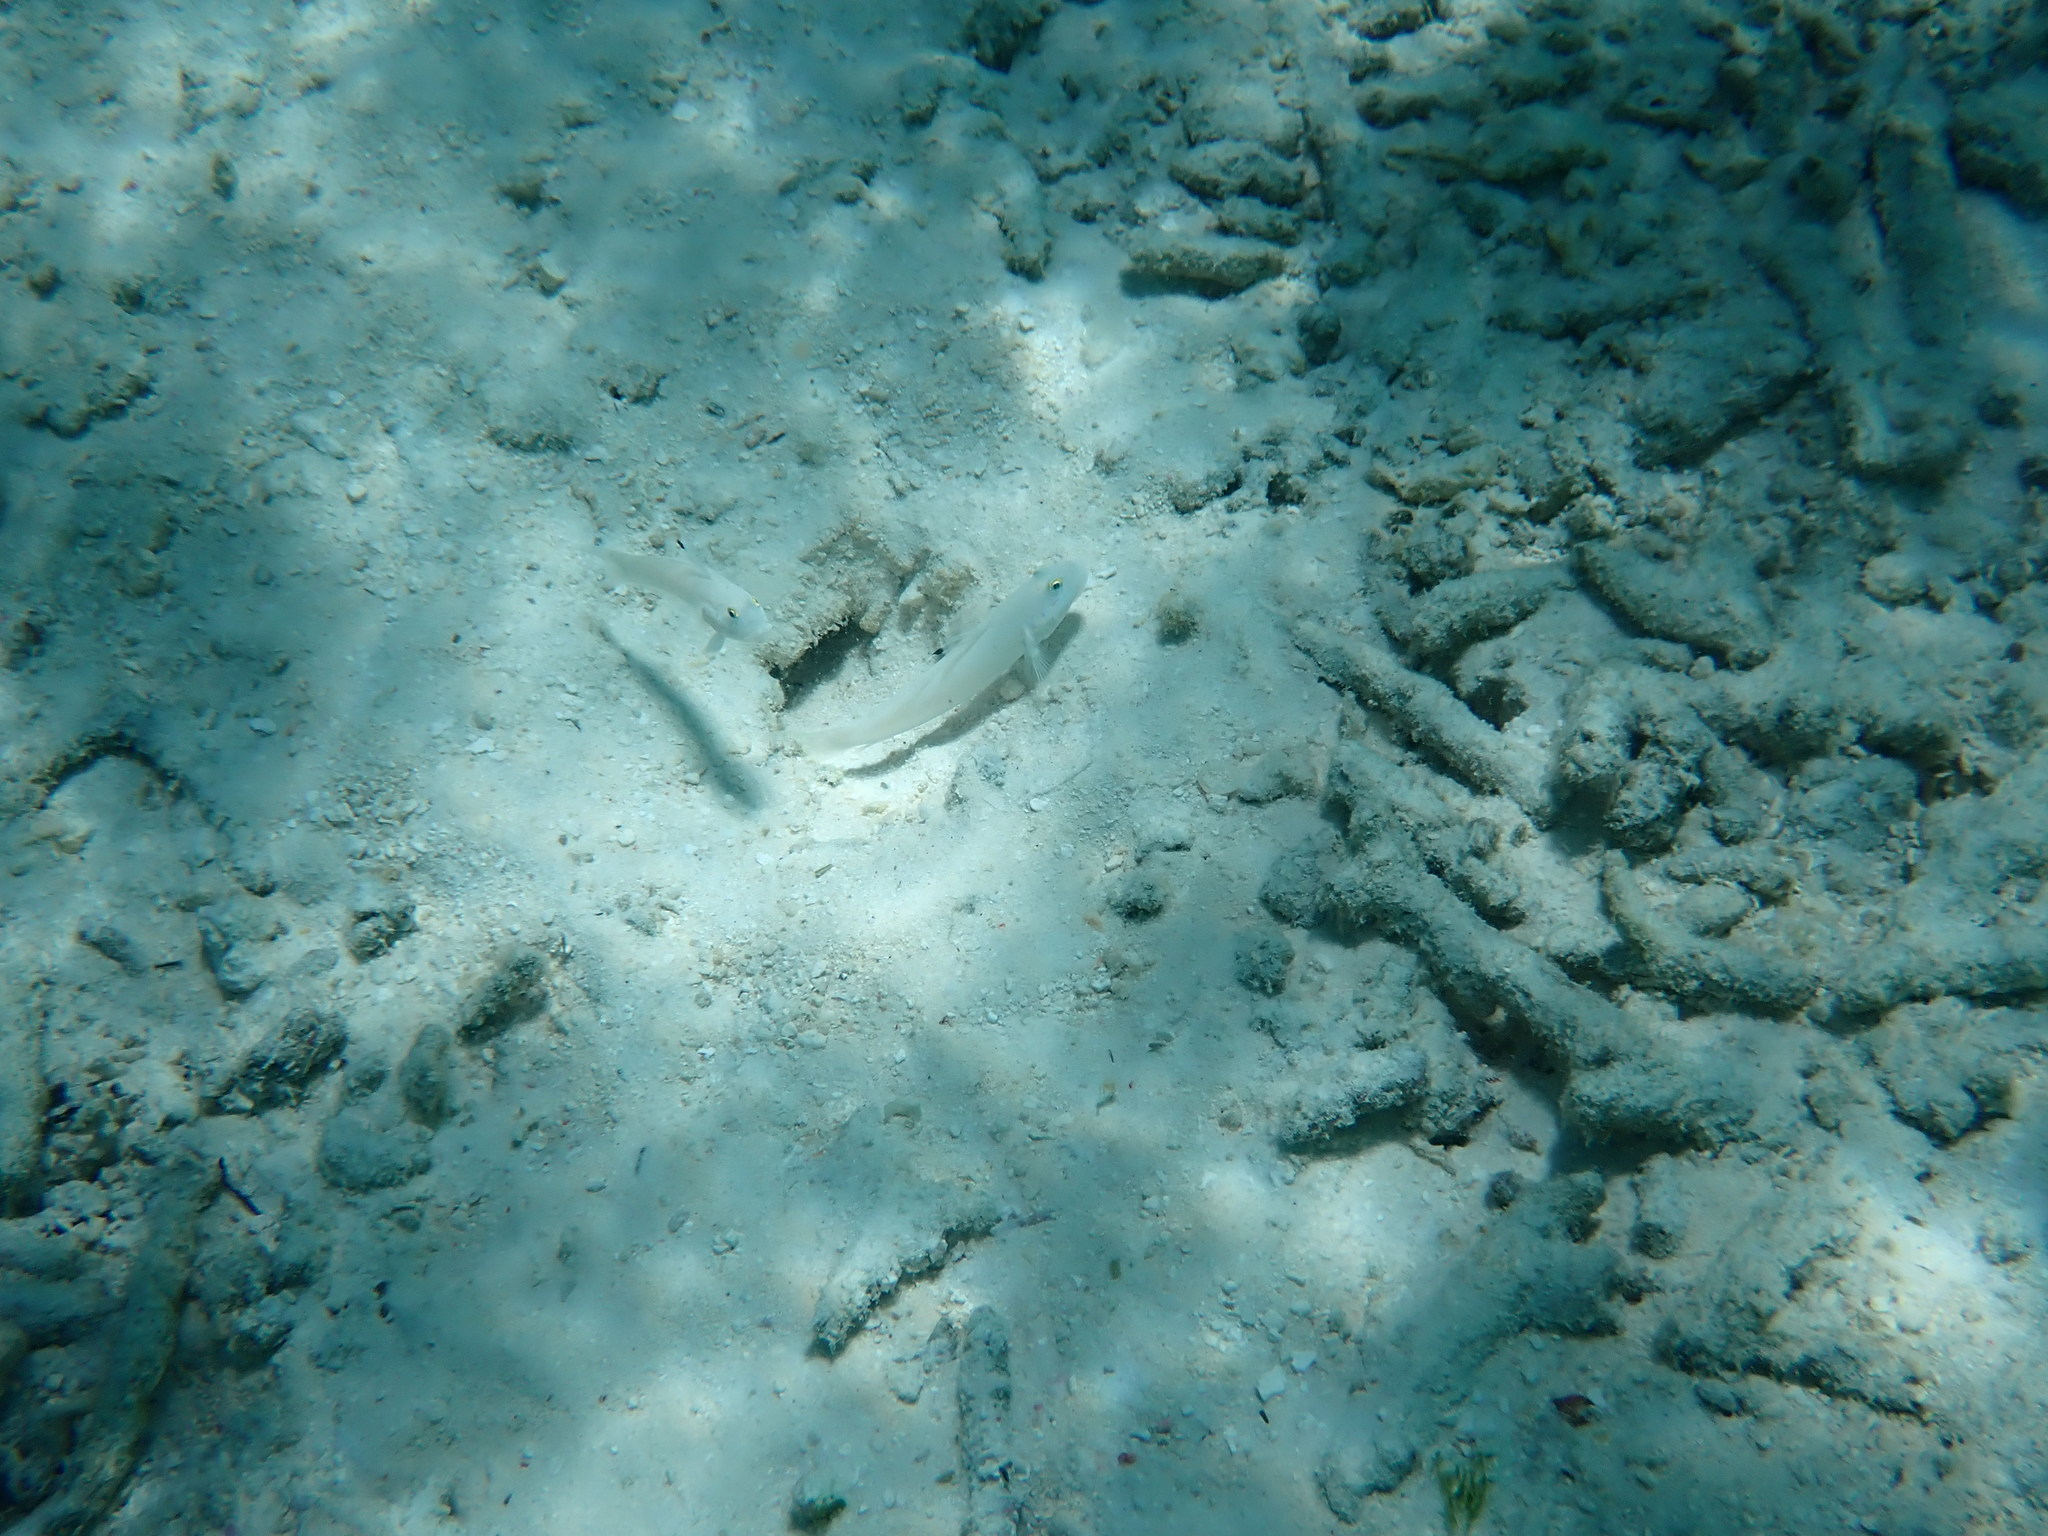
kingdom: Animalia
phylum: Chordata
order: Perciformes
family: Gobiidae
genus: Valenciennea
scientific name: Valenciennea sexguttata
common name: Sixspot goby
